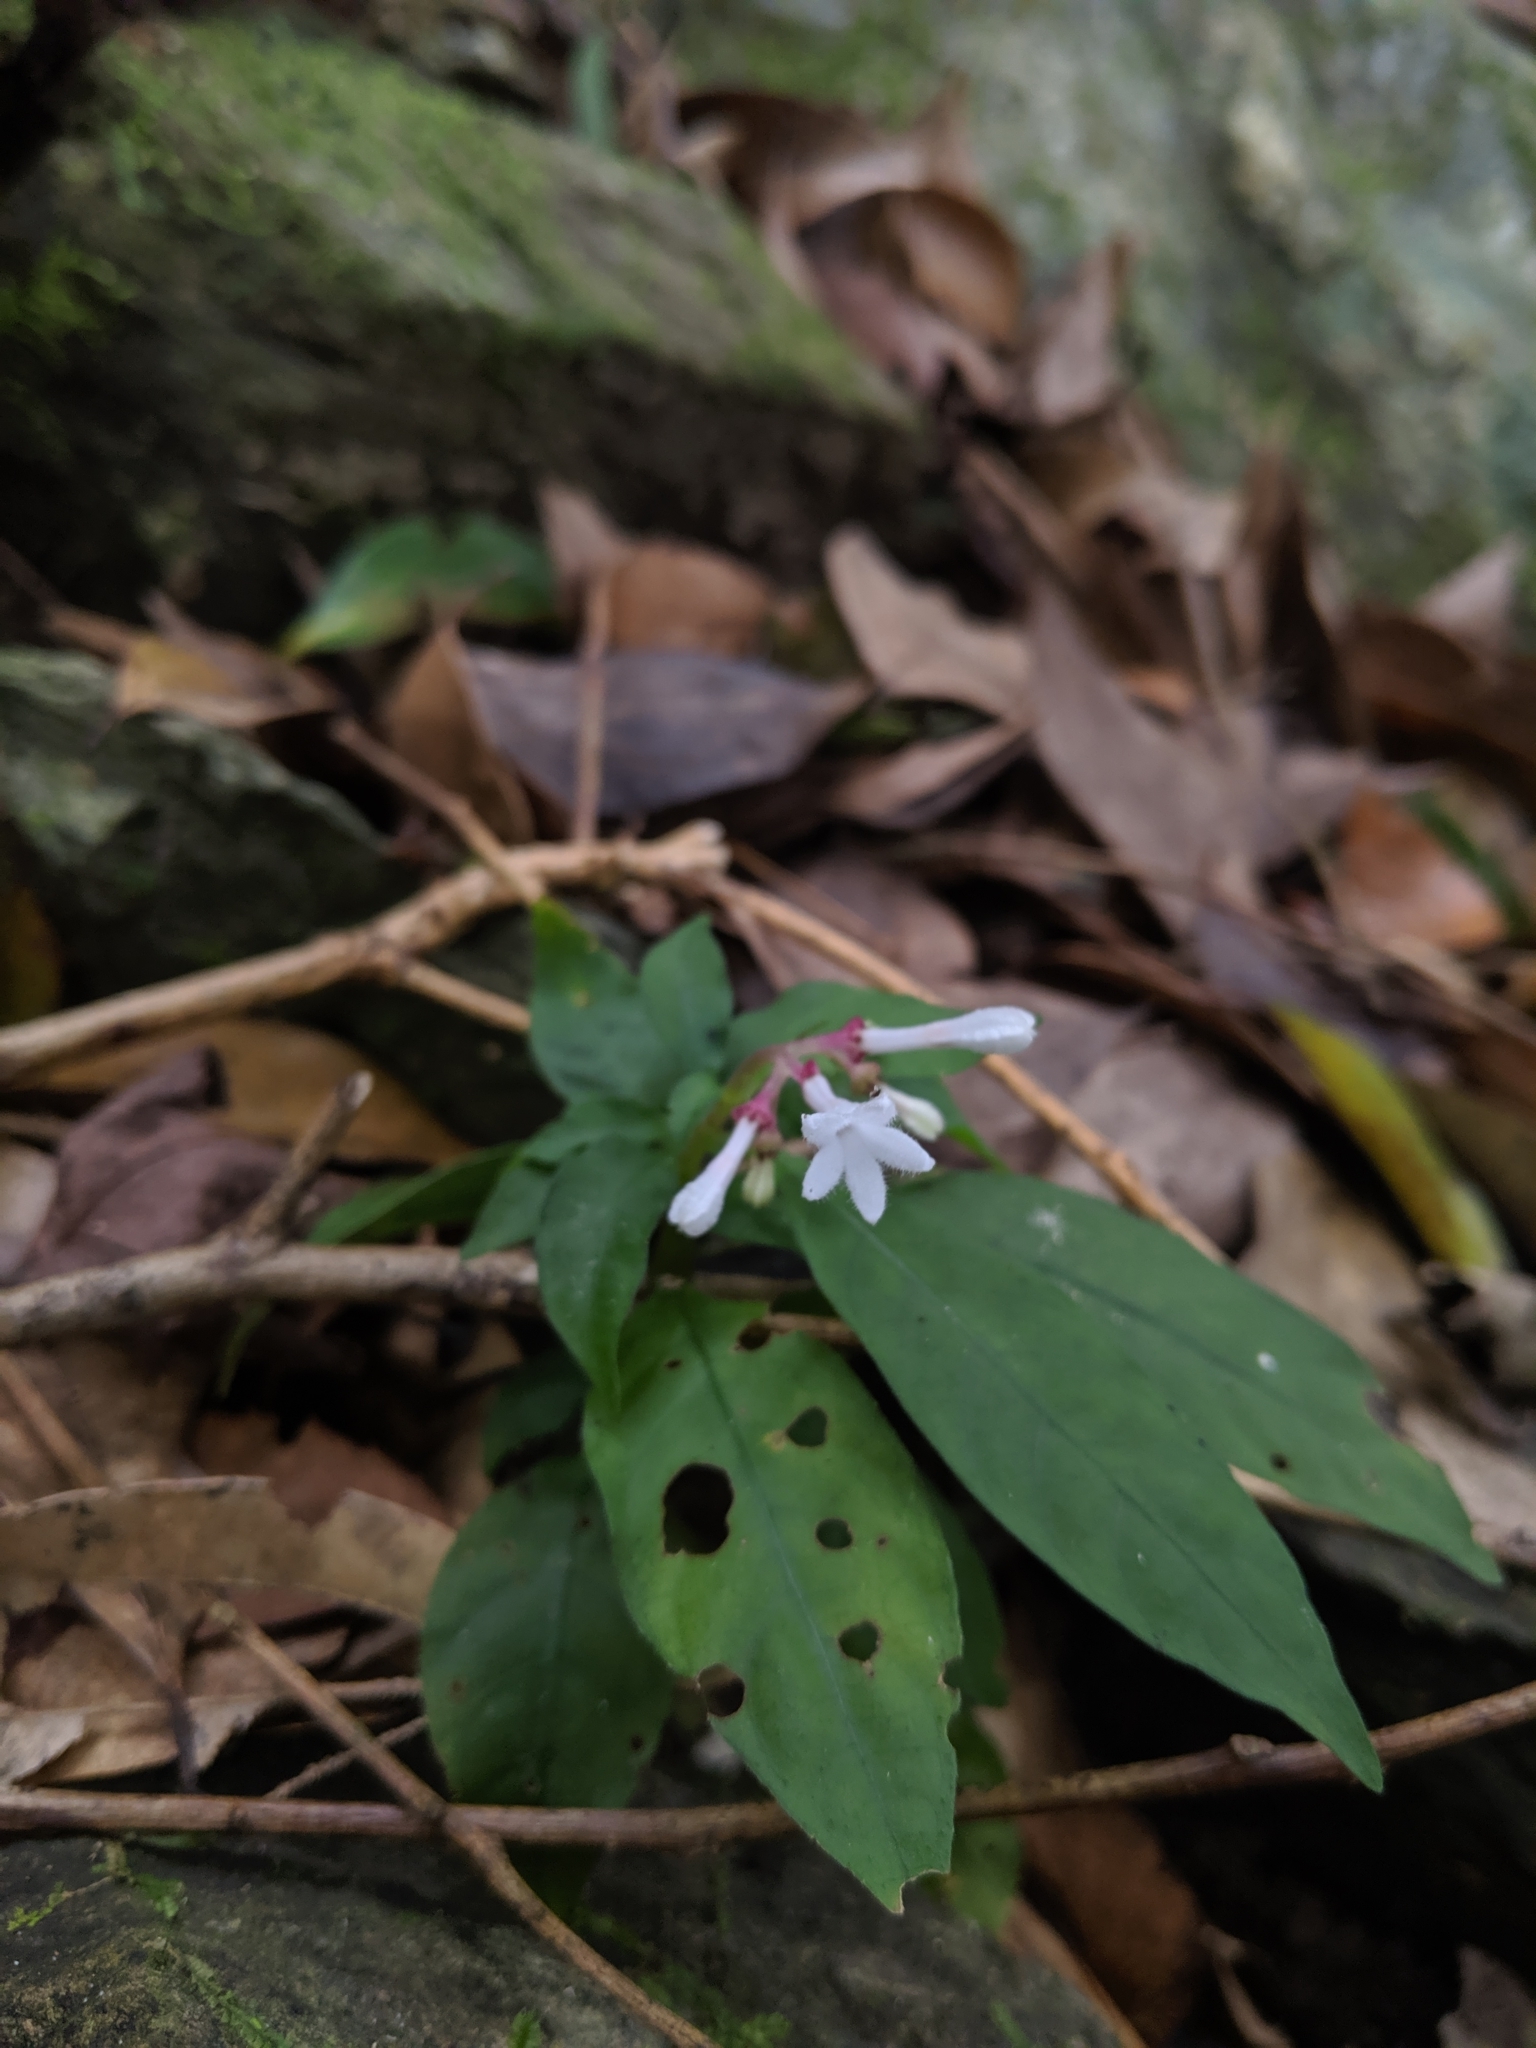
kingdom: Plantae
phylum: Tracheophyta
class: Magnoliopsida
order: Gentianales
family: Rubiaceae
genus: Ophiorrhiza
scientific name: Ophiorrhiza japonica
